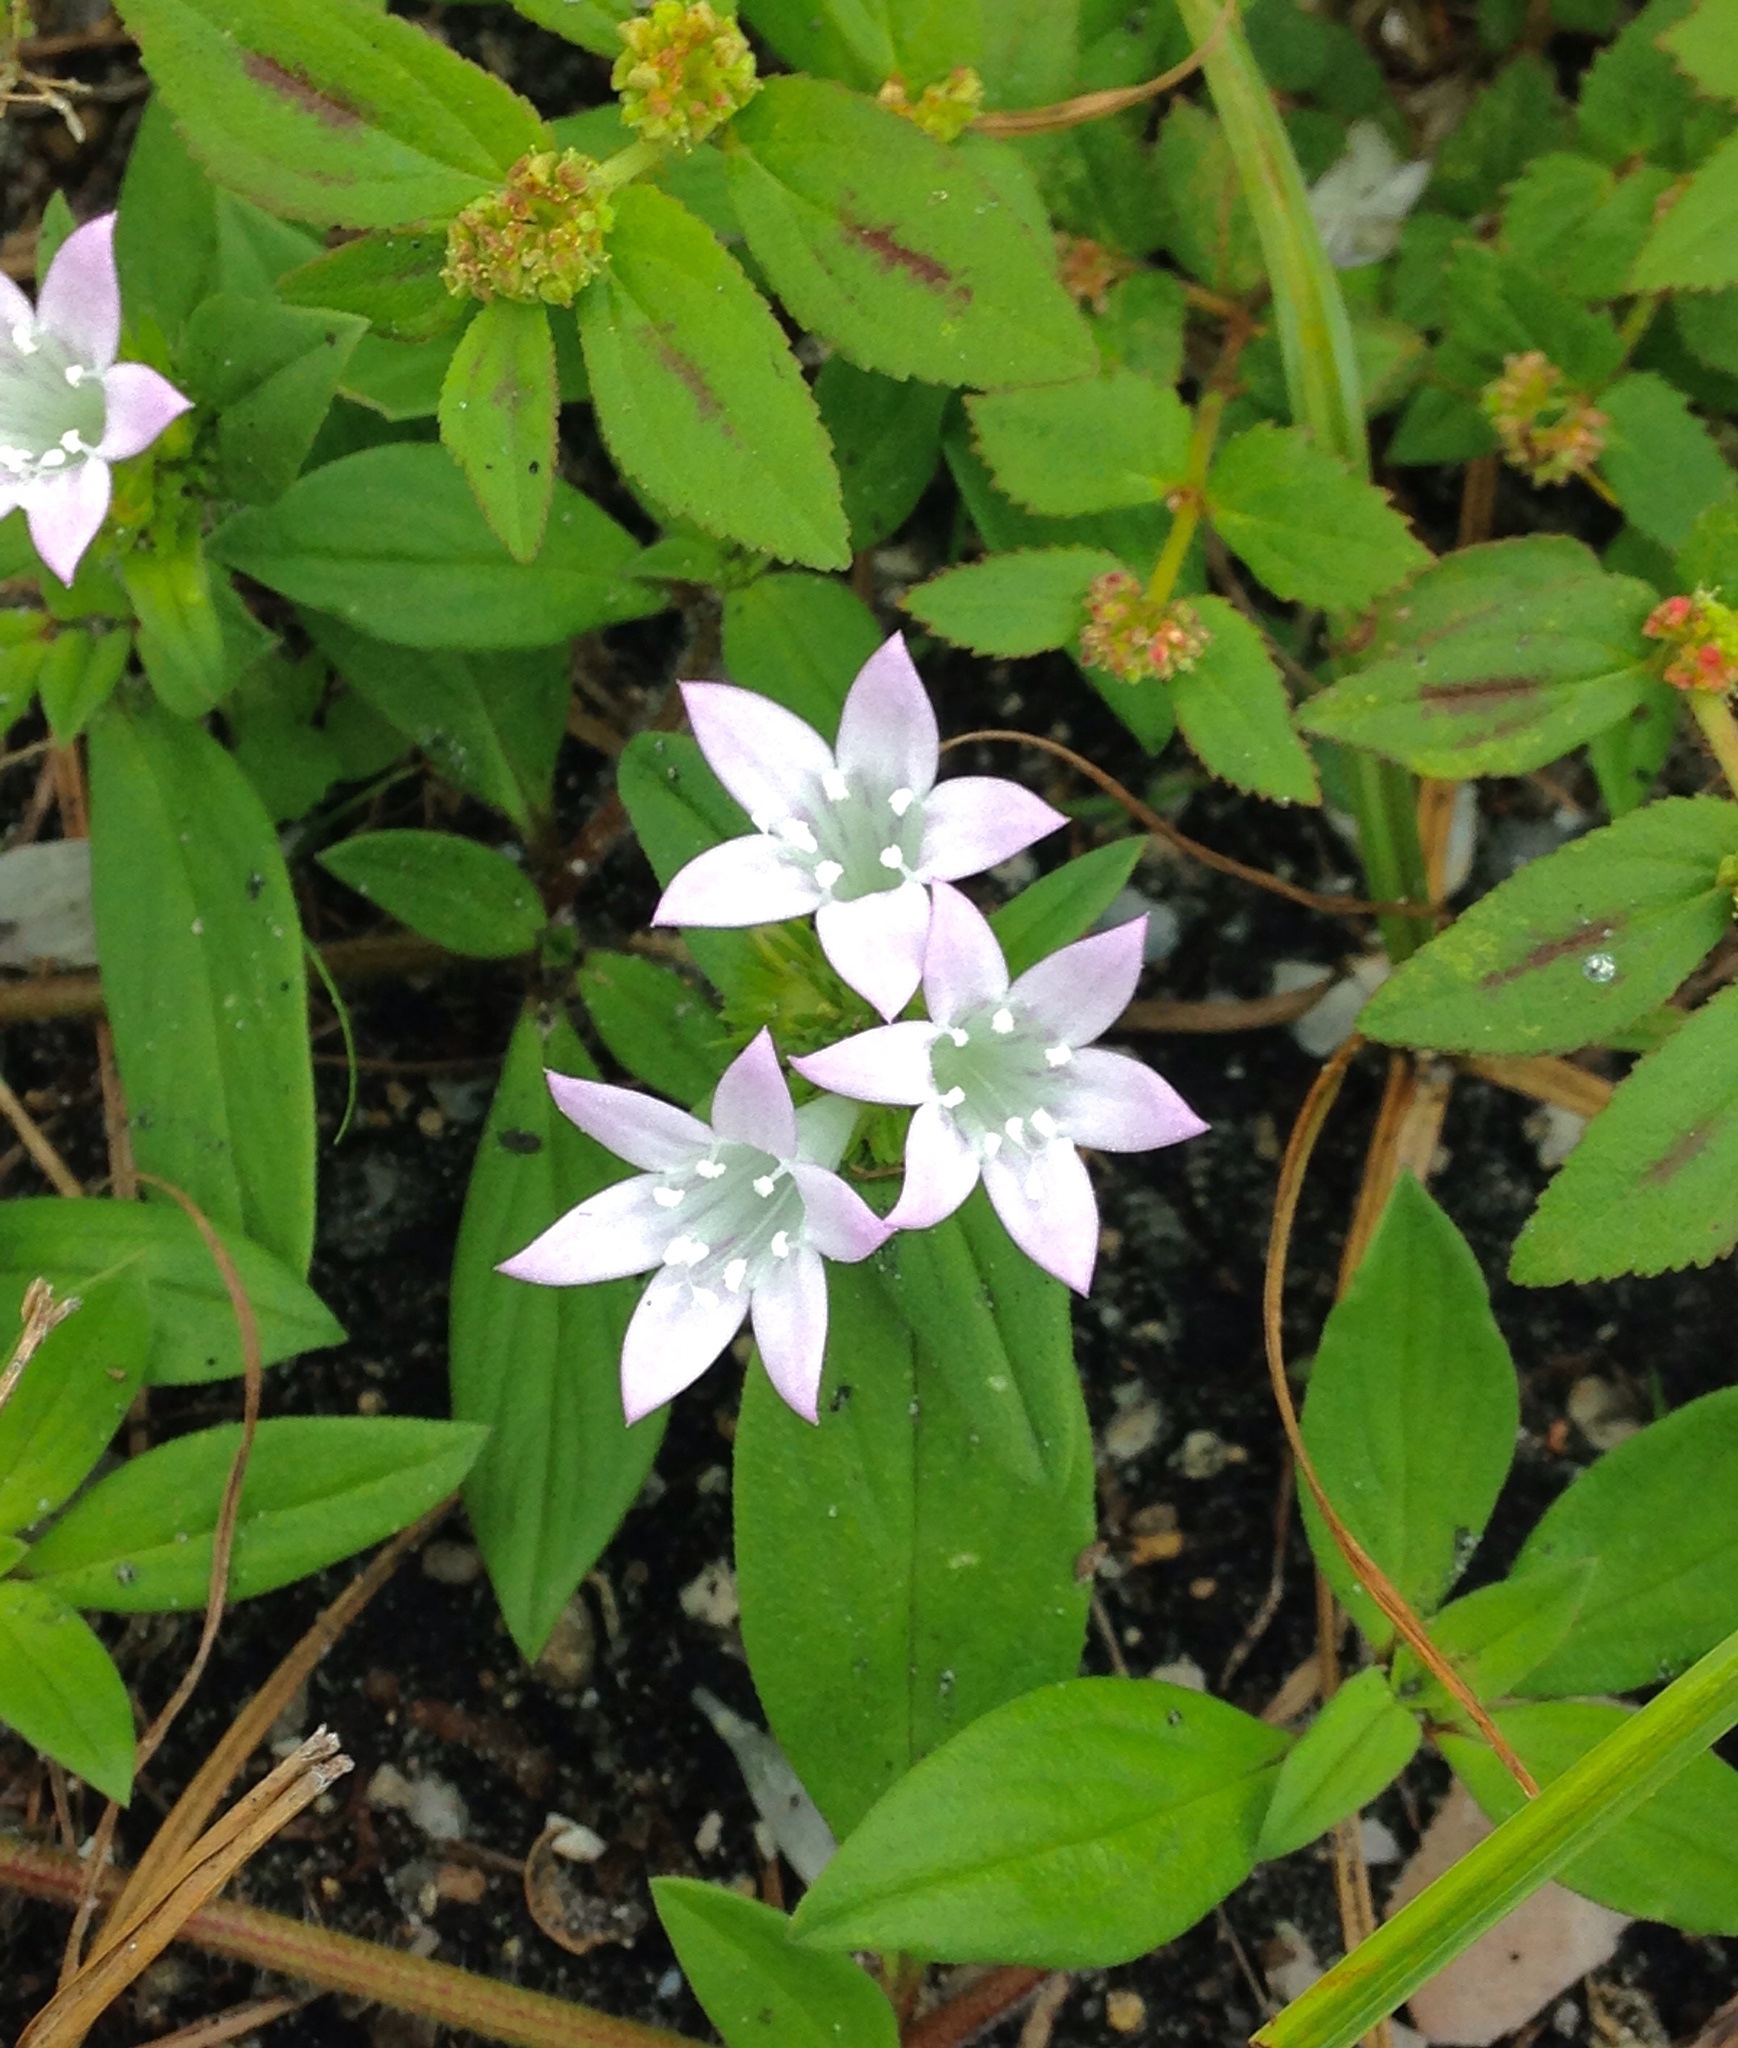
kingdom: Plantae
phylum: Tracheophyta
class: Magnoliopsida
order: Gentianales
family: Rubiaceae
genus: Richardia
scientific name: Richardia grandiflora
